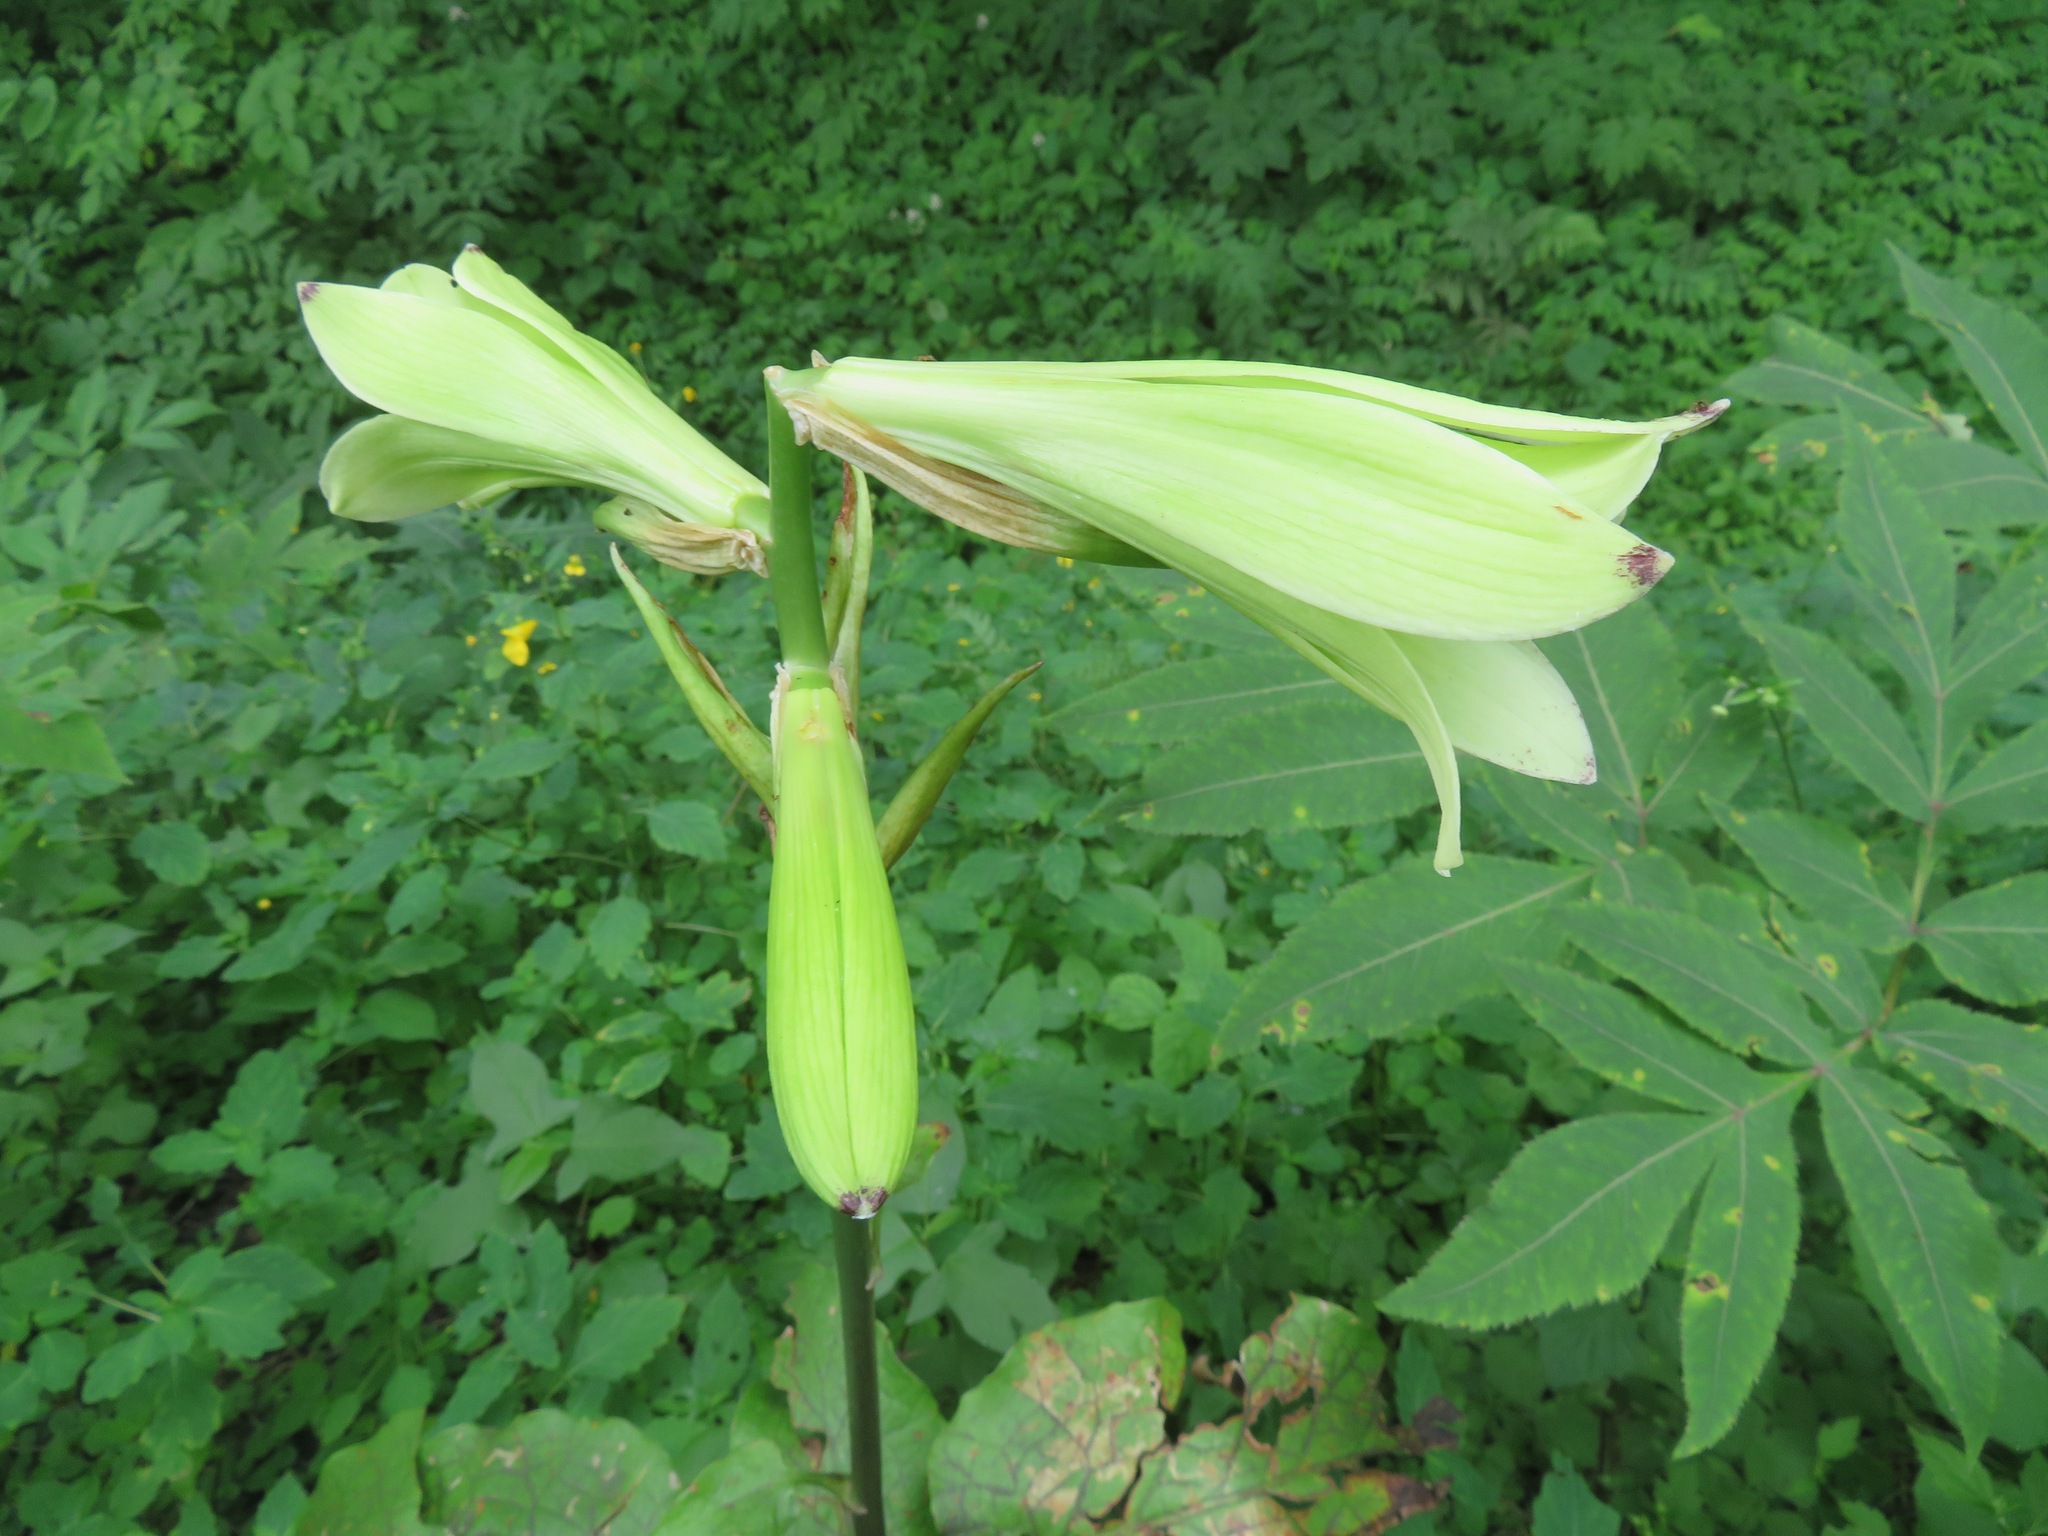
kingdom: Plantae
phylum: Tracheophyta
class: Liliopsida
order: Liliales
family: Liliaceae
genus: Cardiocrinum
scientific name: Cardiocrinum cordatum
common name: Lily
